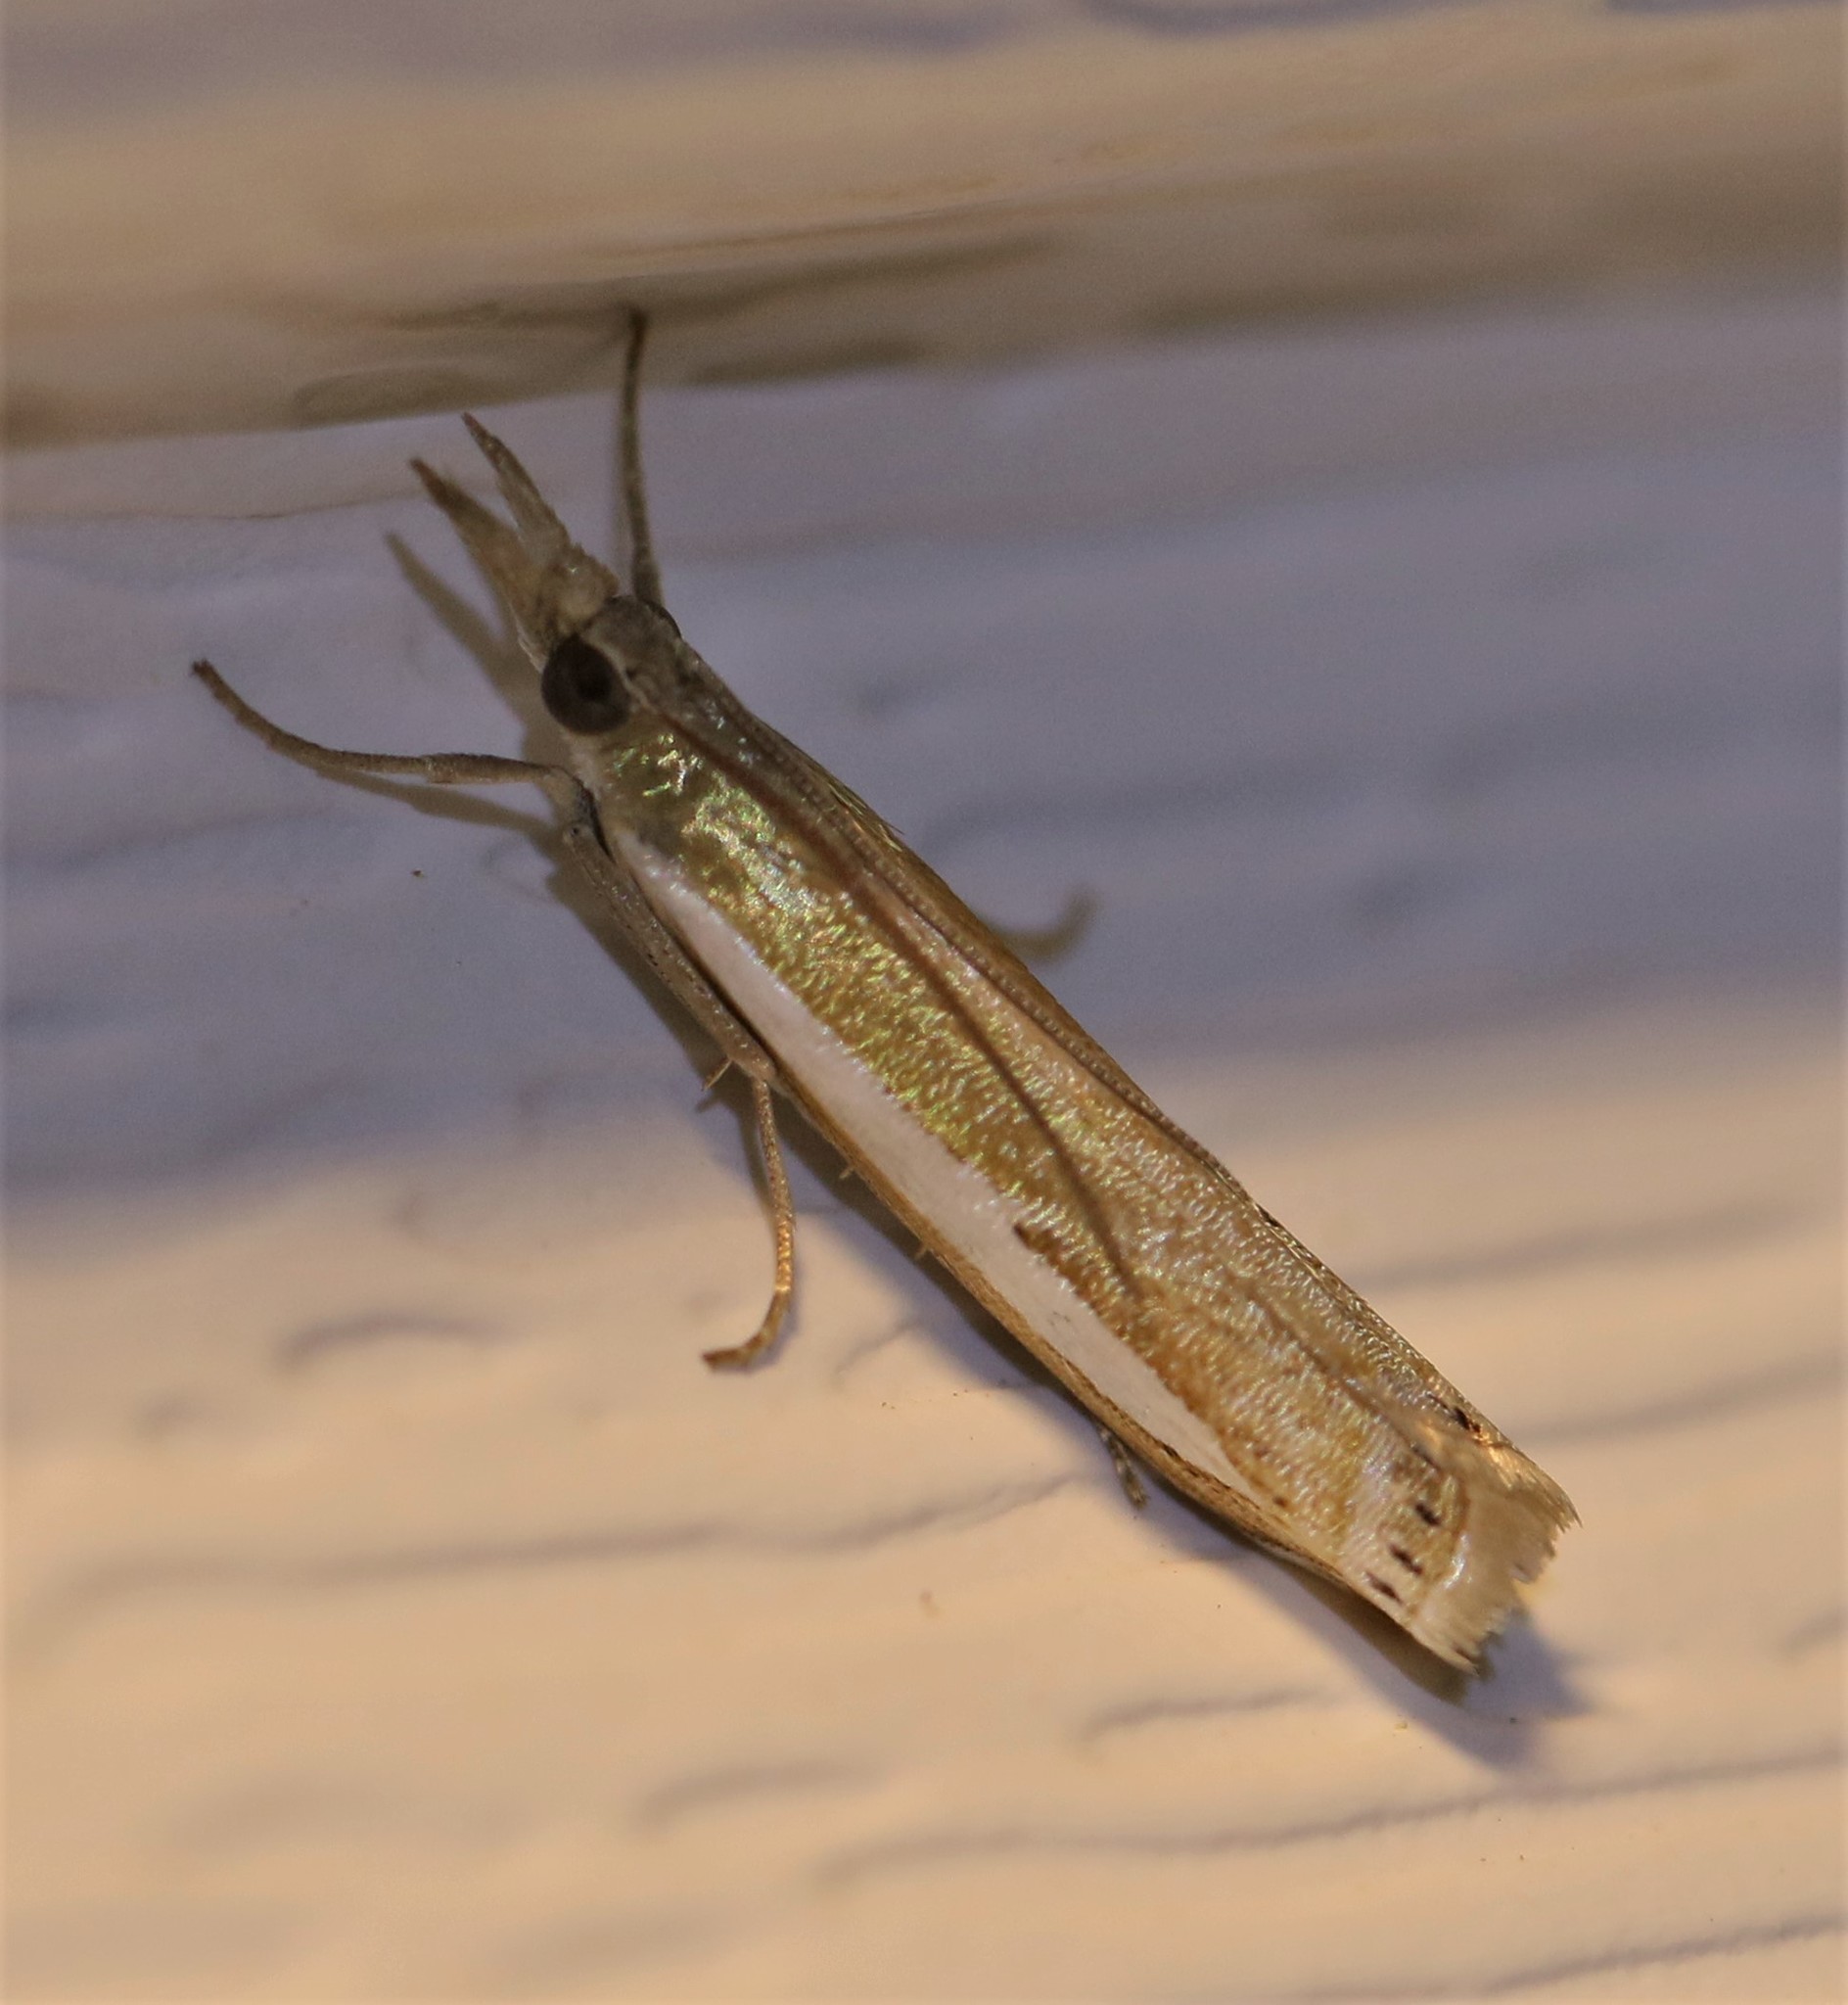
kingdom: Animalia
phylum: Arthropoda
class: Insecta
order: Lepidoptera
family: Crambidae
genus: Crambus
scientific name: Crambus praefectellus
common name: Common grass-veneer
